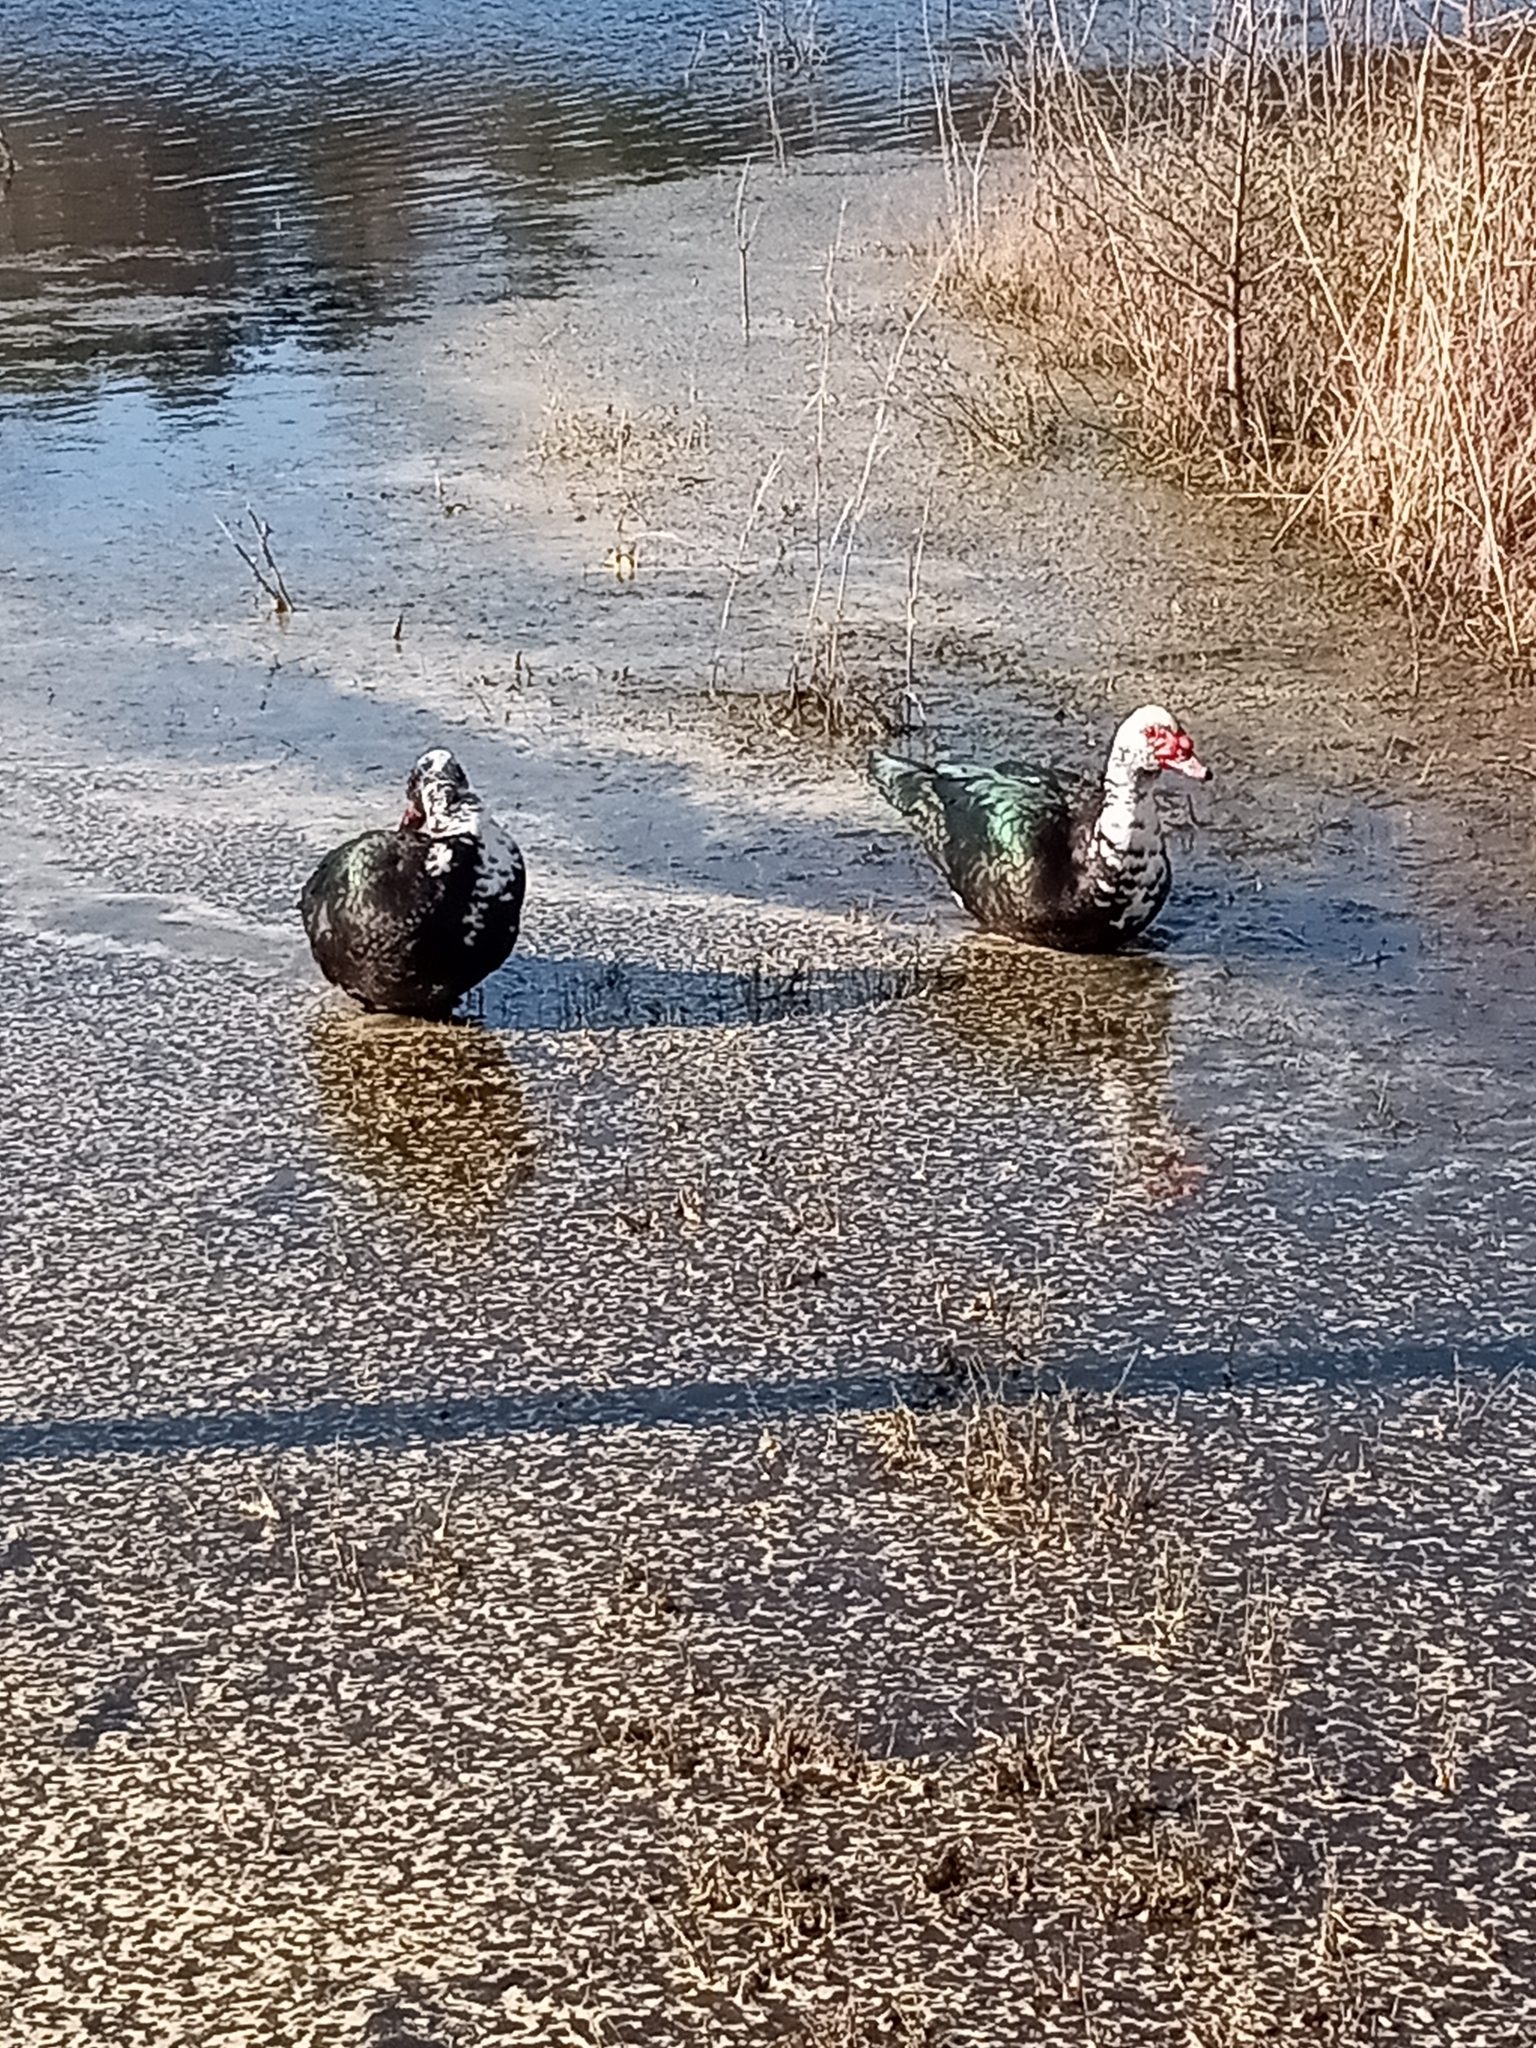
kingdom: Animalia
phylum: Chordata
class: Aves
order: Anseriformes
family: Anatidae
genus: Cairina
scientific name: Cairina moschata
